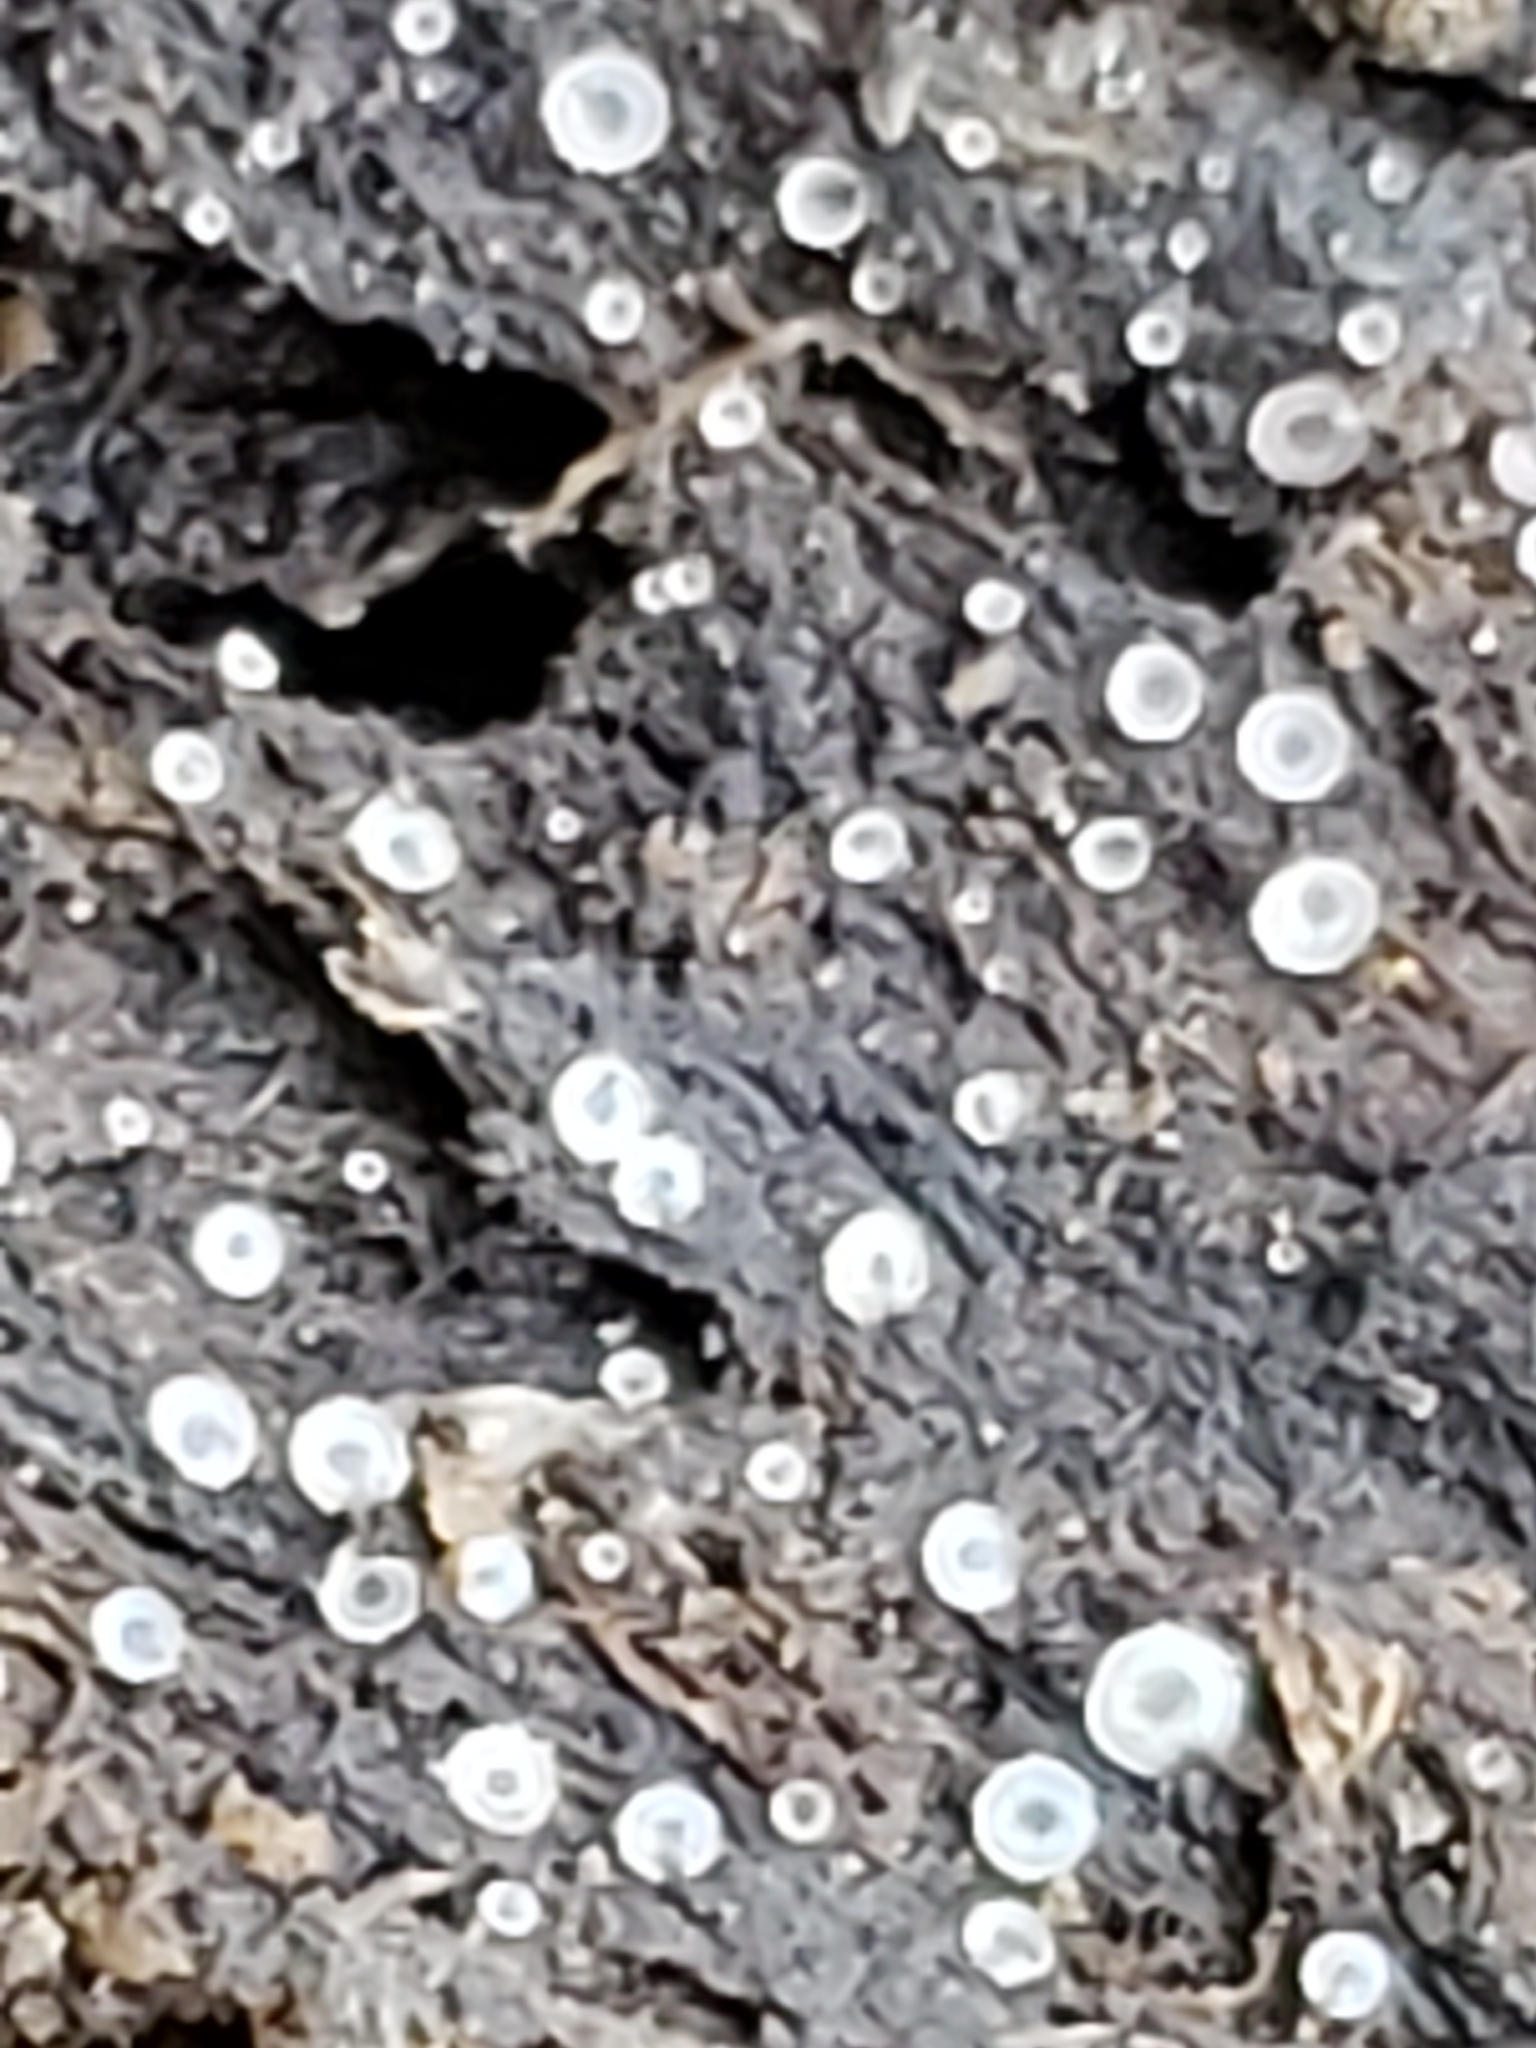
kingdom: Fungi
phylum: Ascomycota
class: Orbiliomycetes
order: Orbiliales
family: Orbiliaceae
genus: Orbilia
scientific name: Orbilia
